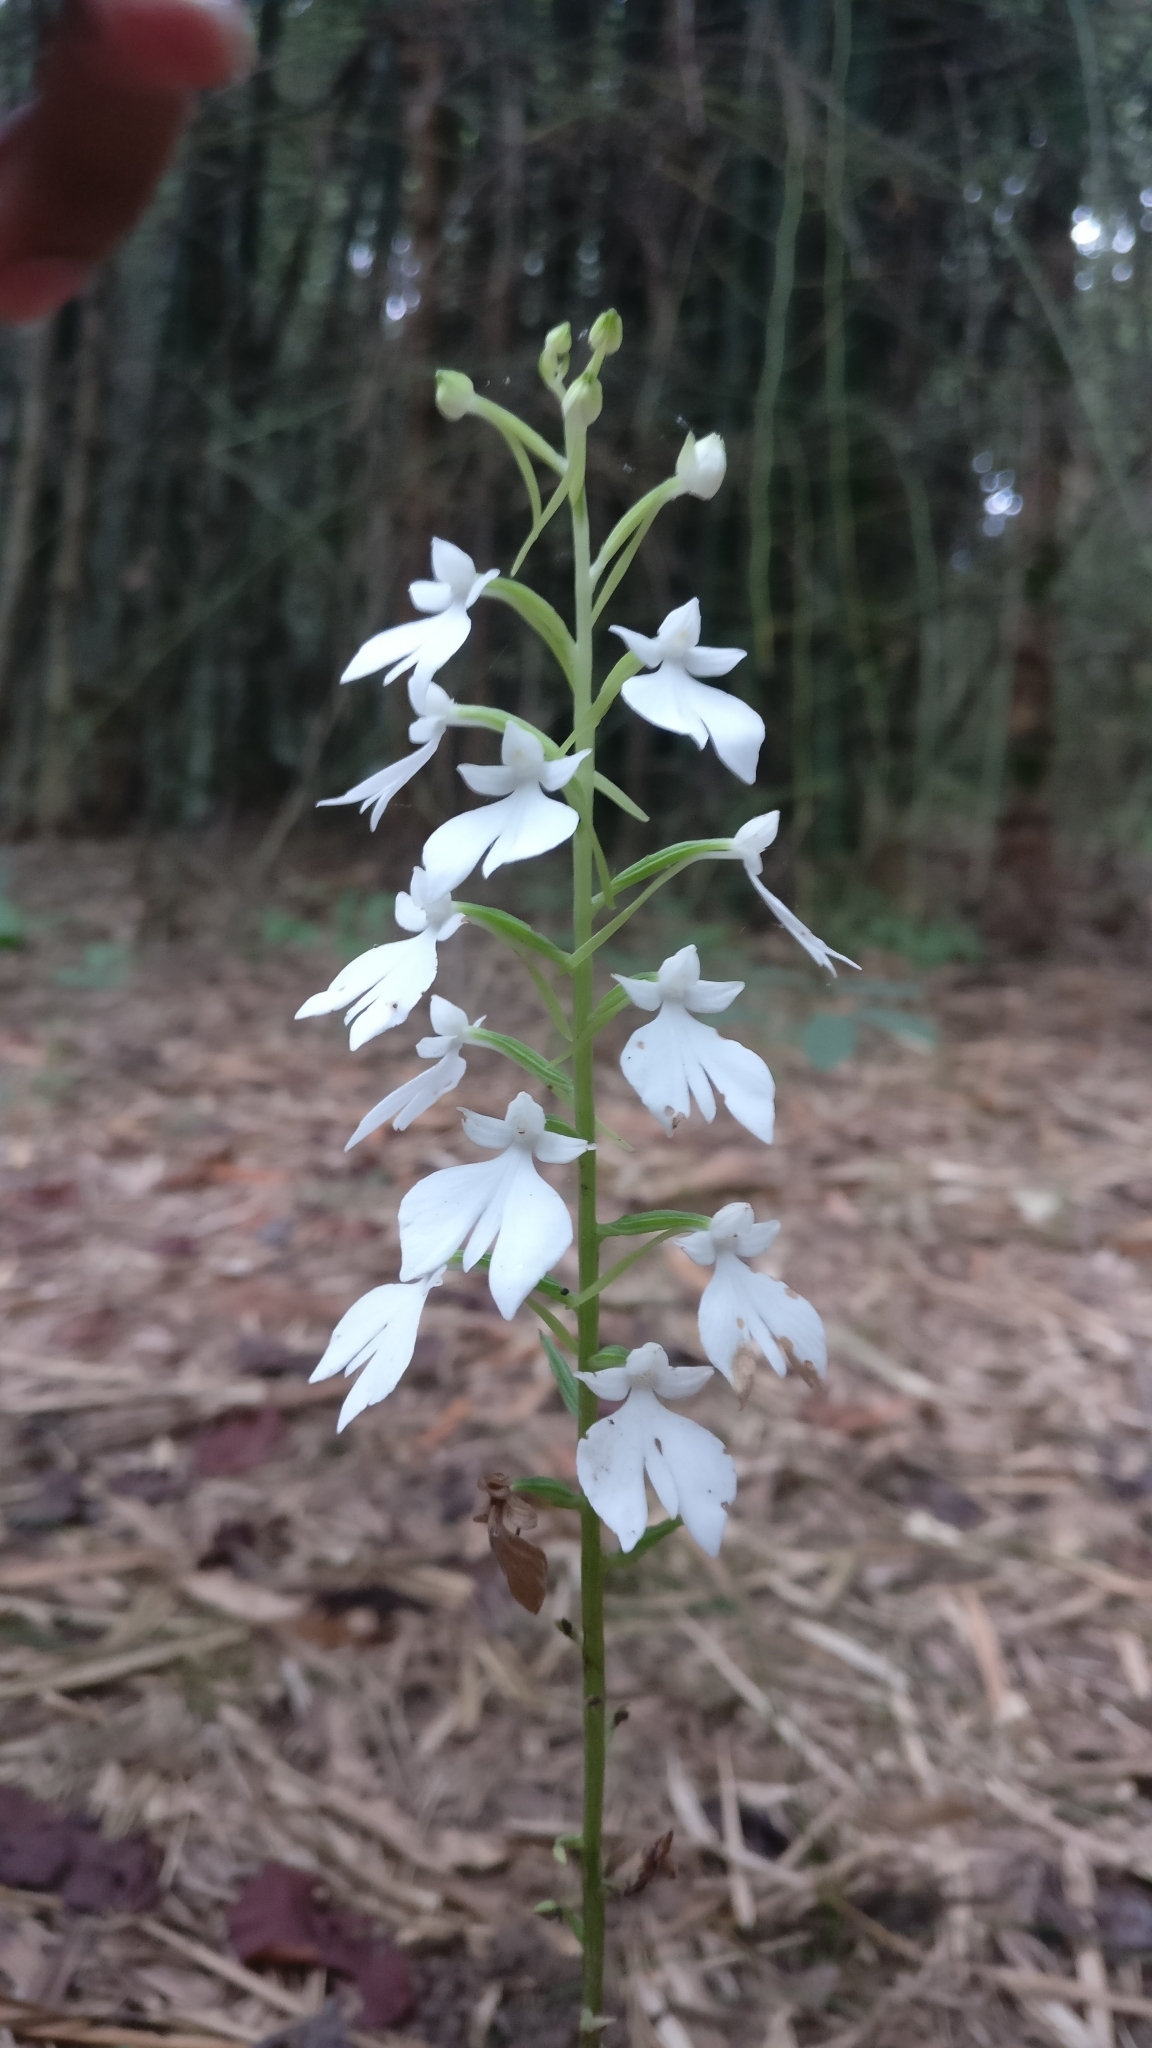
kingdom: Plantae
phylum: Tracheophyta
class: Liliopsida
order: Asparagales
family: Orchidaceae
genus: Habenaria
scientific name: Habenaria plantaginea
